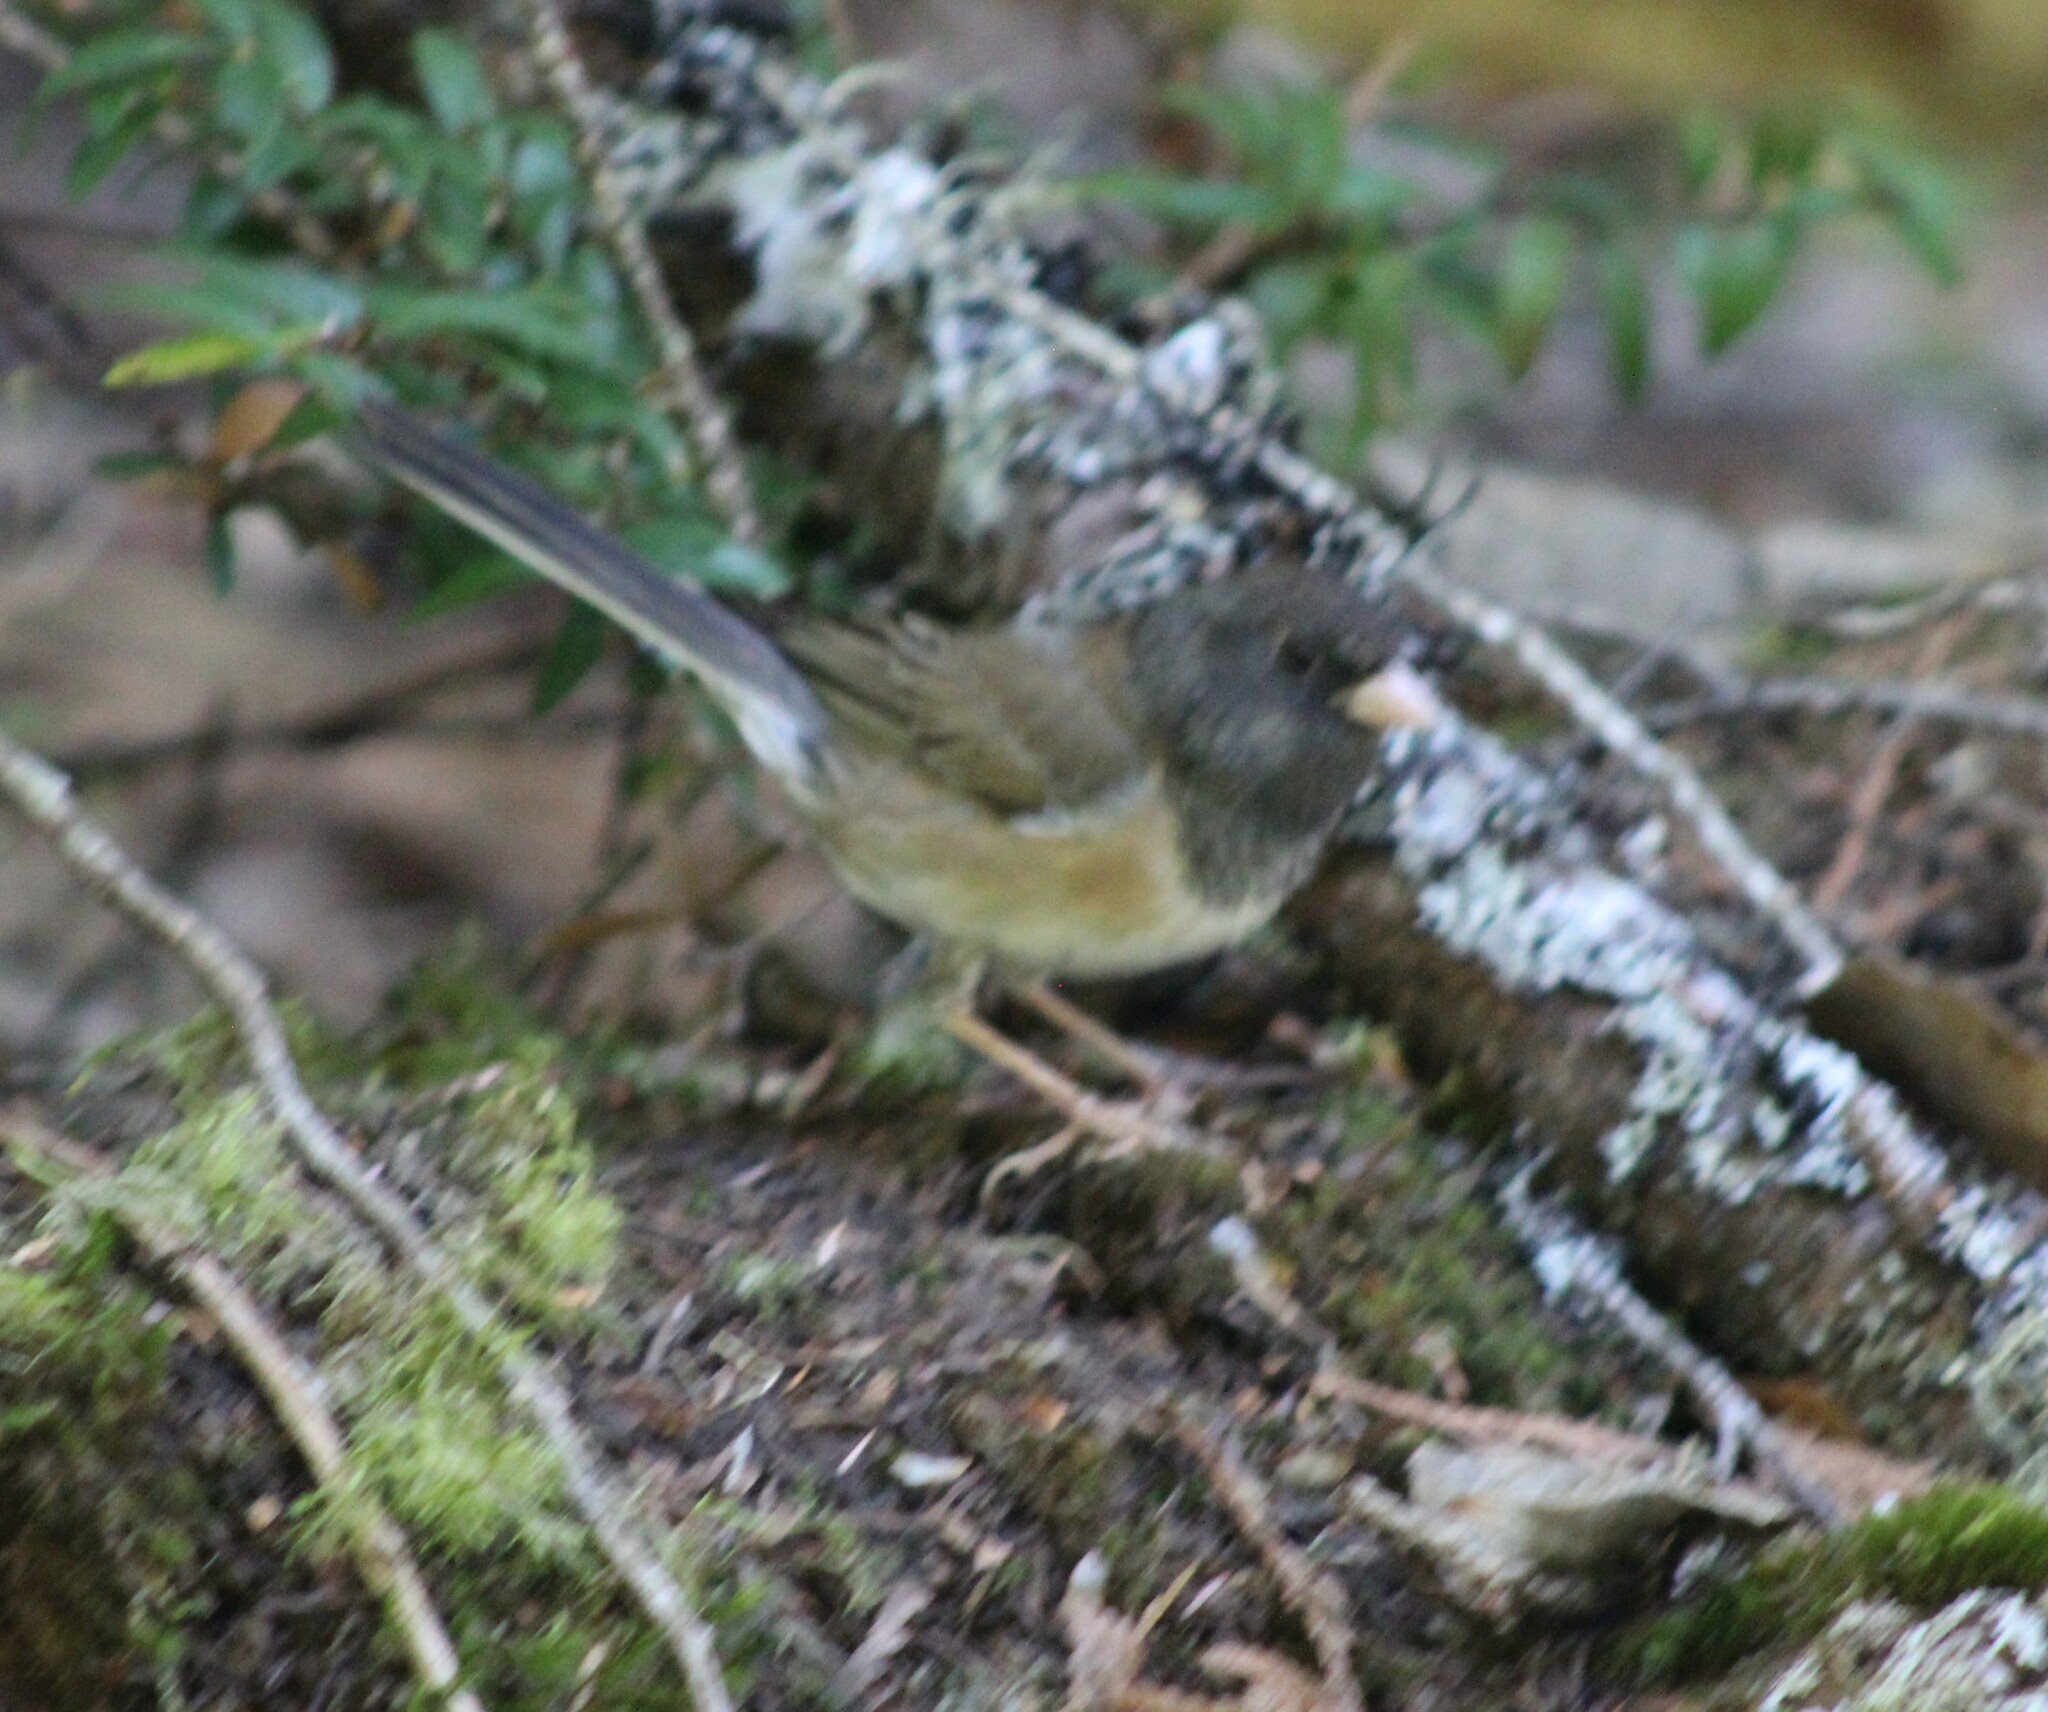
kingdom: Animalia
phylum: Chordata
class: Aves
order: Passeriformes
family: Passerellidae
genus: Junco
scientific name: Junco hyemalis
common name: Dark-eyed junco
